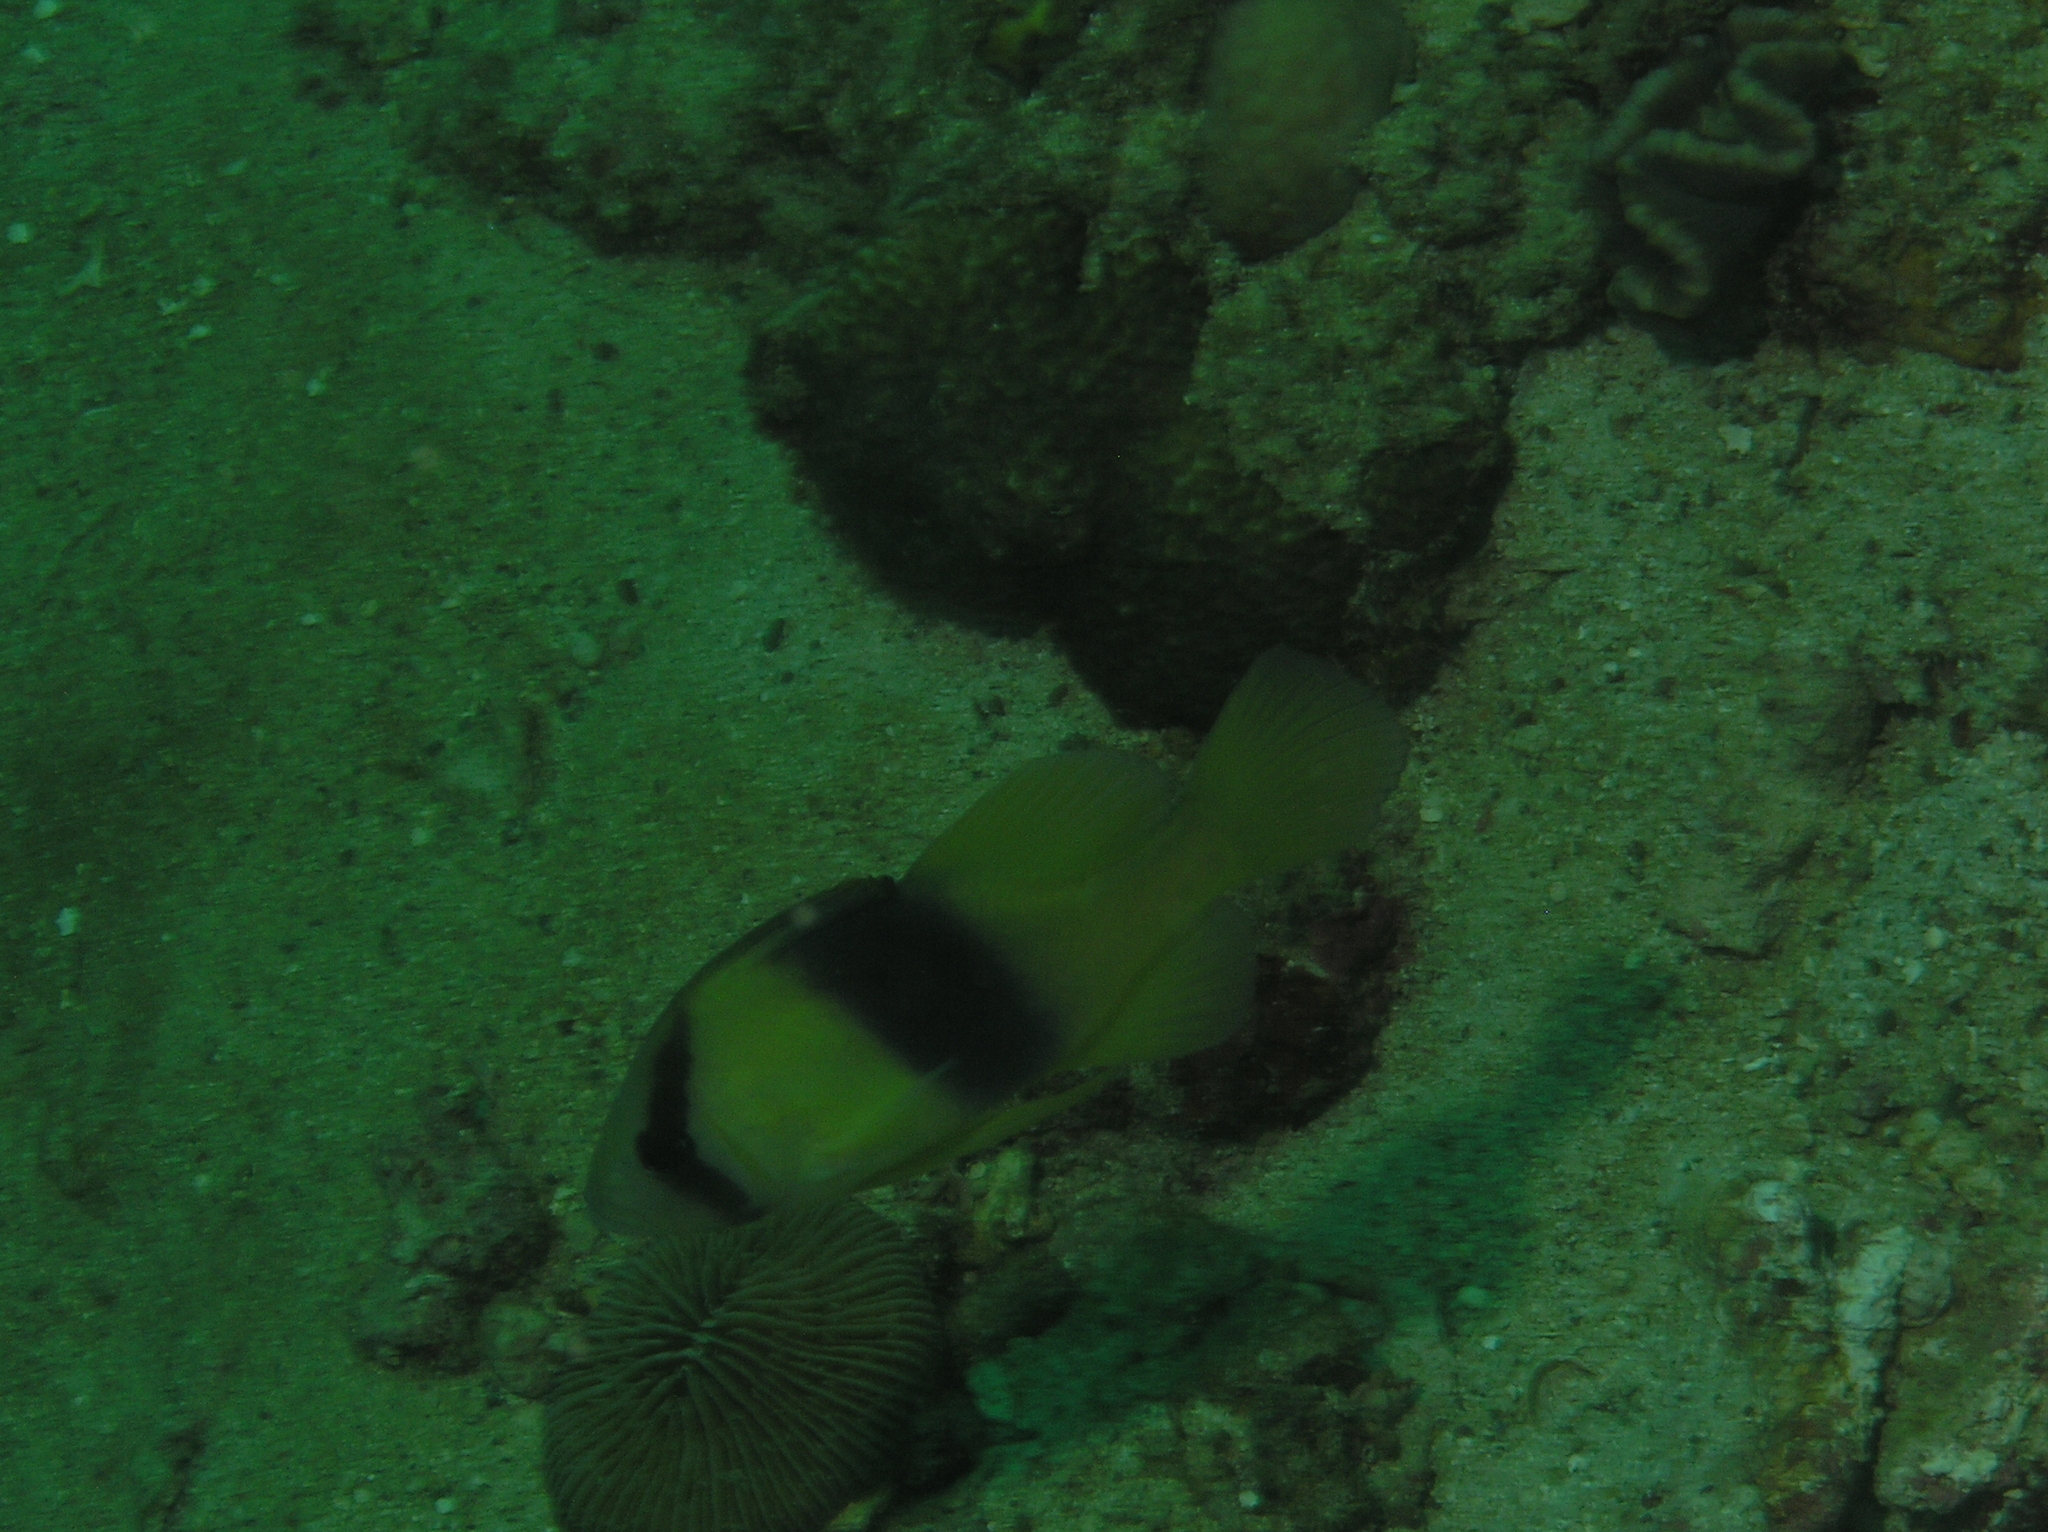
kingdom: Animalia
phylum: Chordata
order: Perciformes
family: Serranidae
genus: Diploprion
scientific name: Diploprion bifasciatum
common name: Barred soapfish
